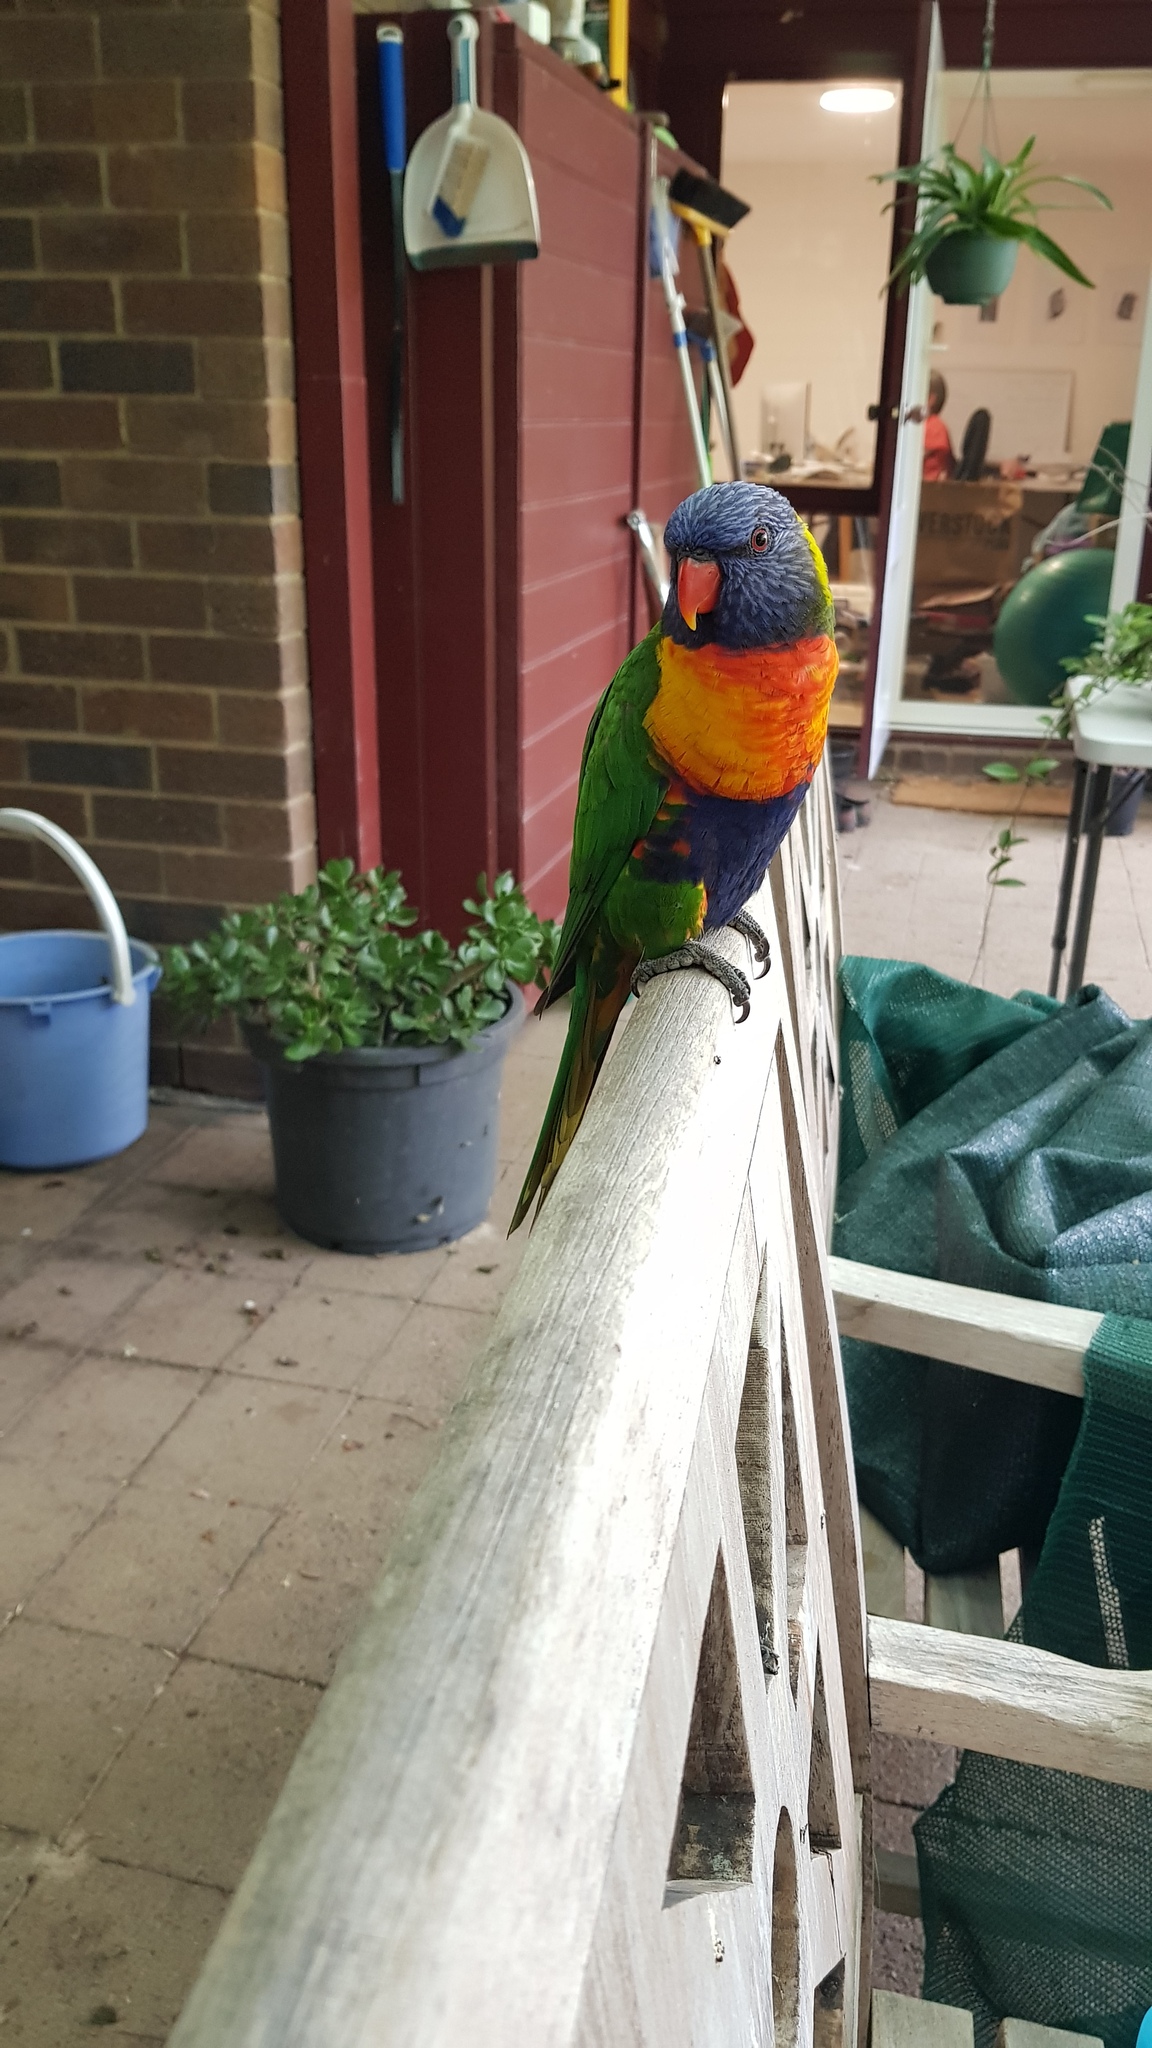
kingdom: Animalia
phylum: Chordata
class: Aves
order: Psittaciformes
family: Psittacidae
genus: Trichoglossus
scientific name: Trichoglossus haematodus
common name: Coconut lorikeet
